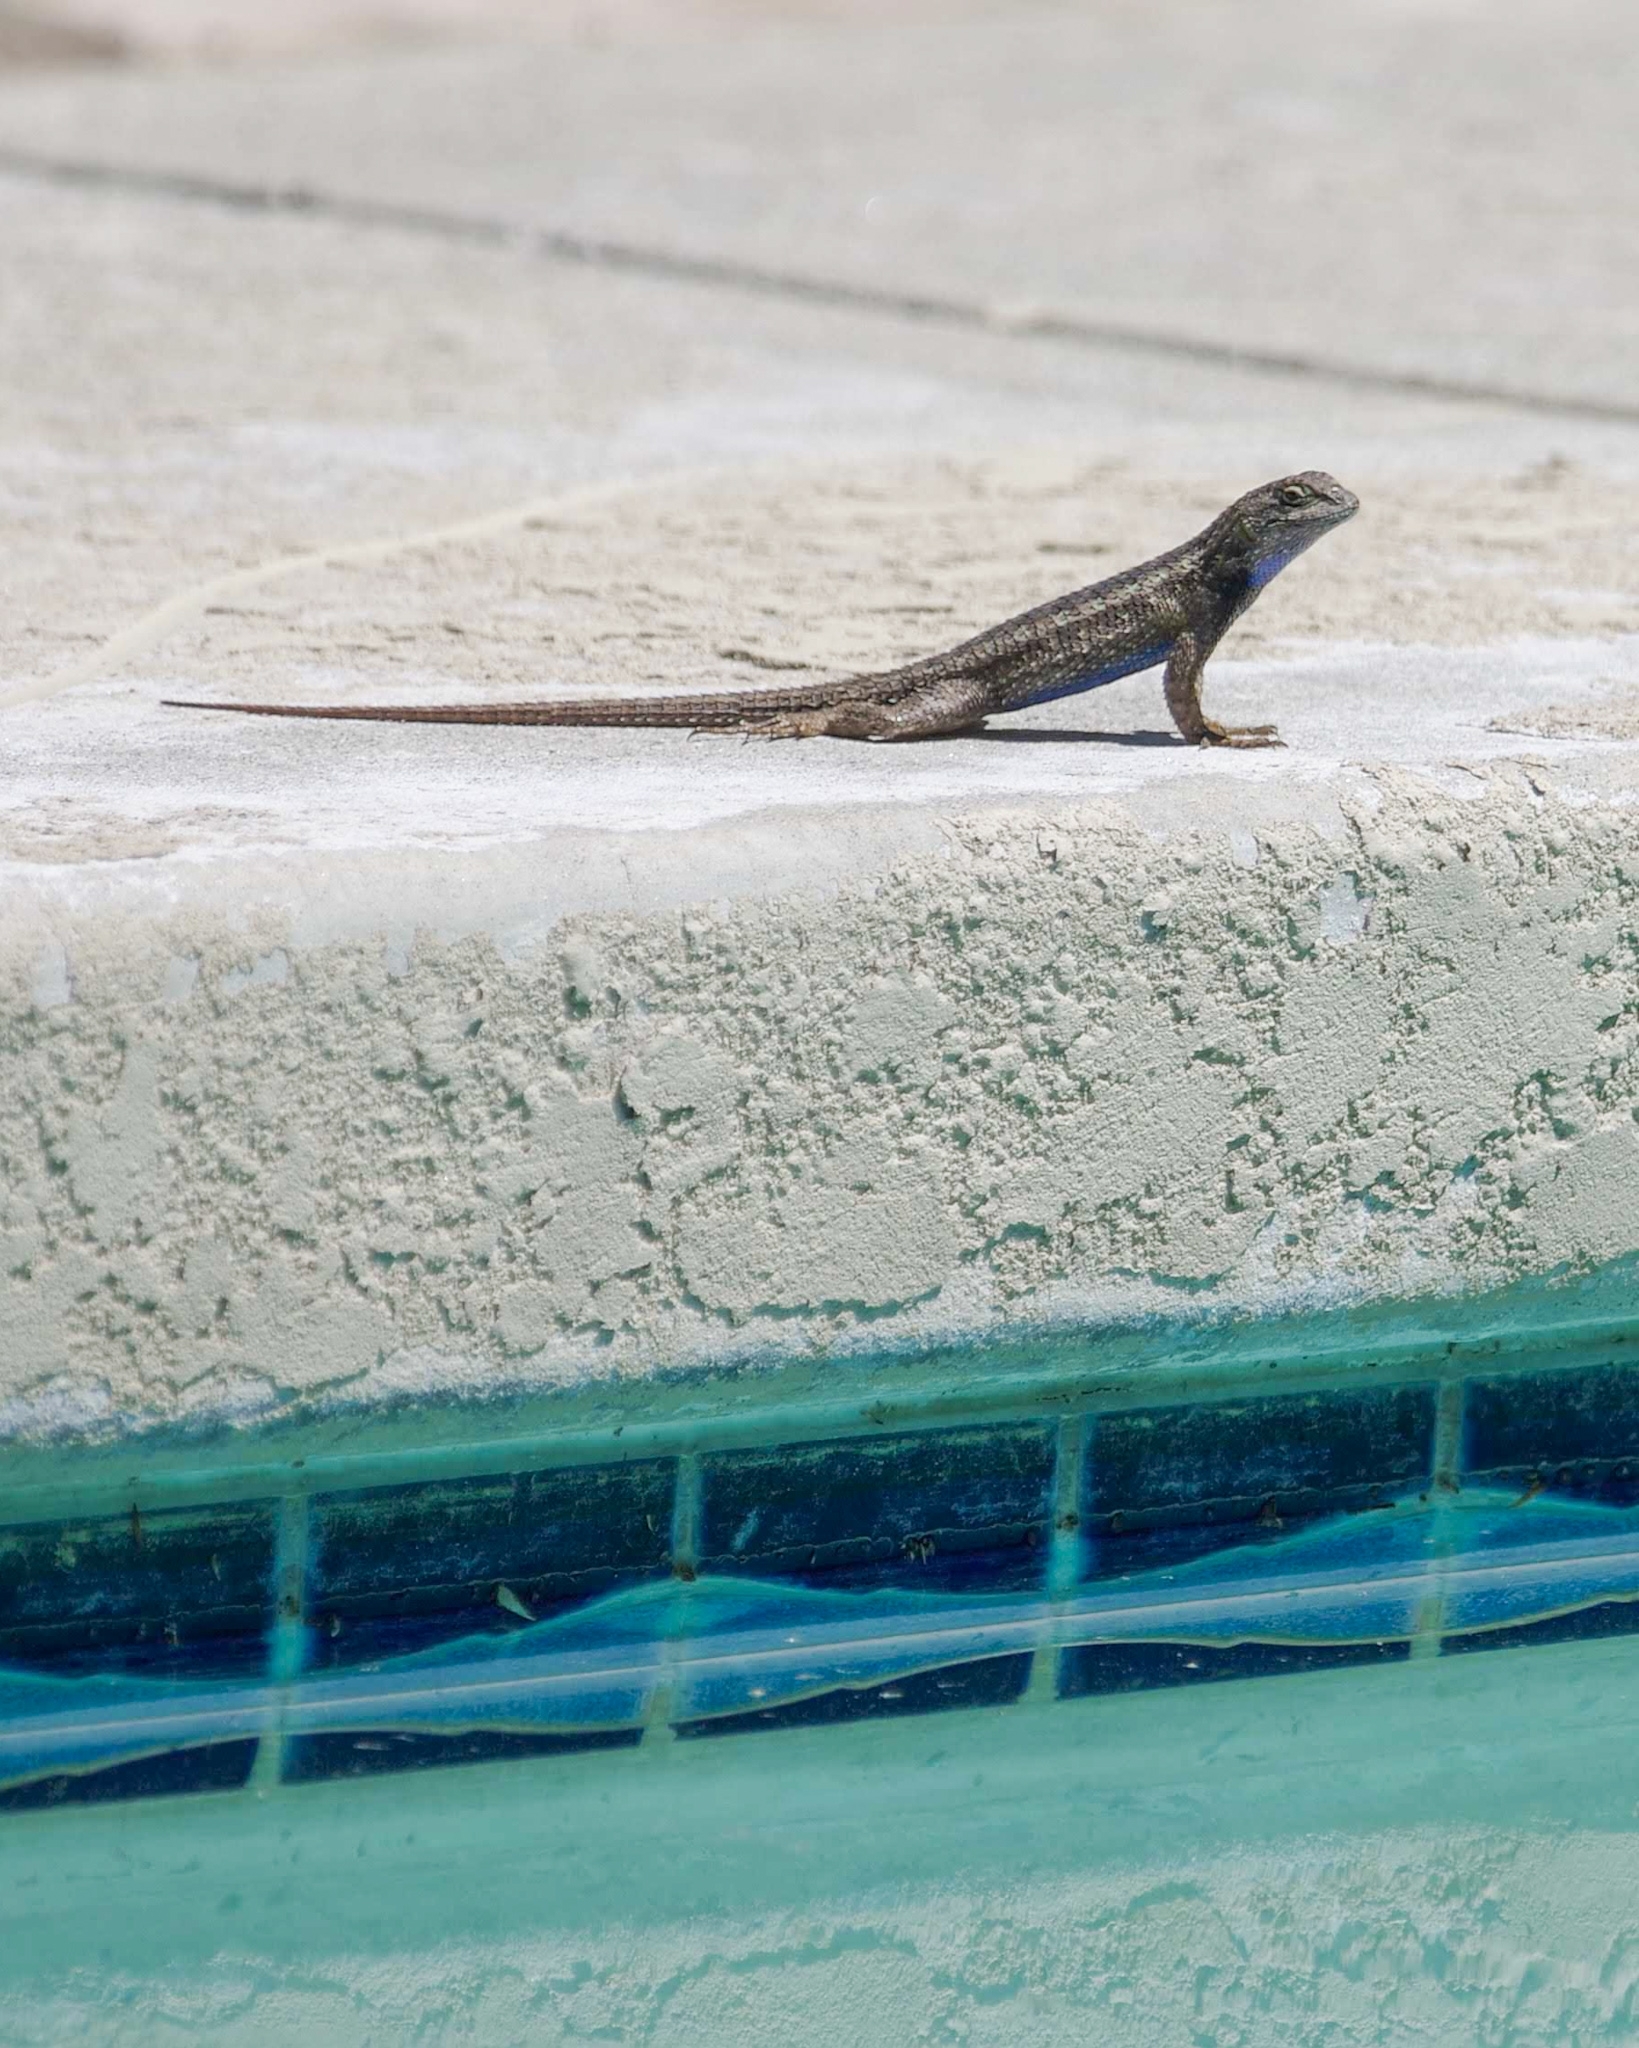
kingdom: Animalia
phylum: Chordata
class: Squamata
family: Phrynosomatidae
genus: Sceloporus
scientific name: Sceloporus occidentalis
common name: Western fence lizard
